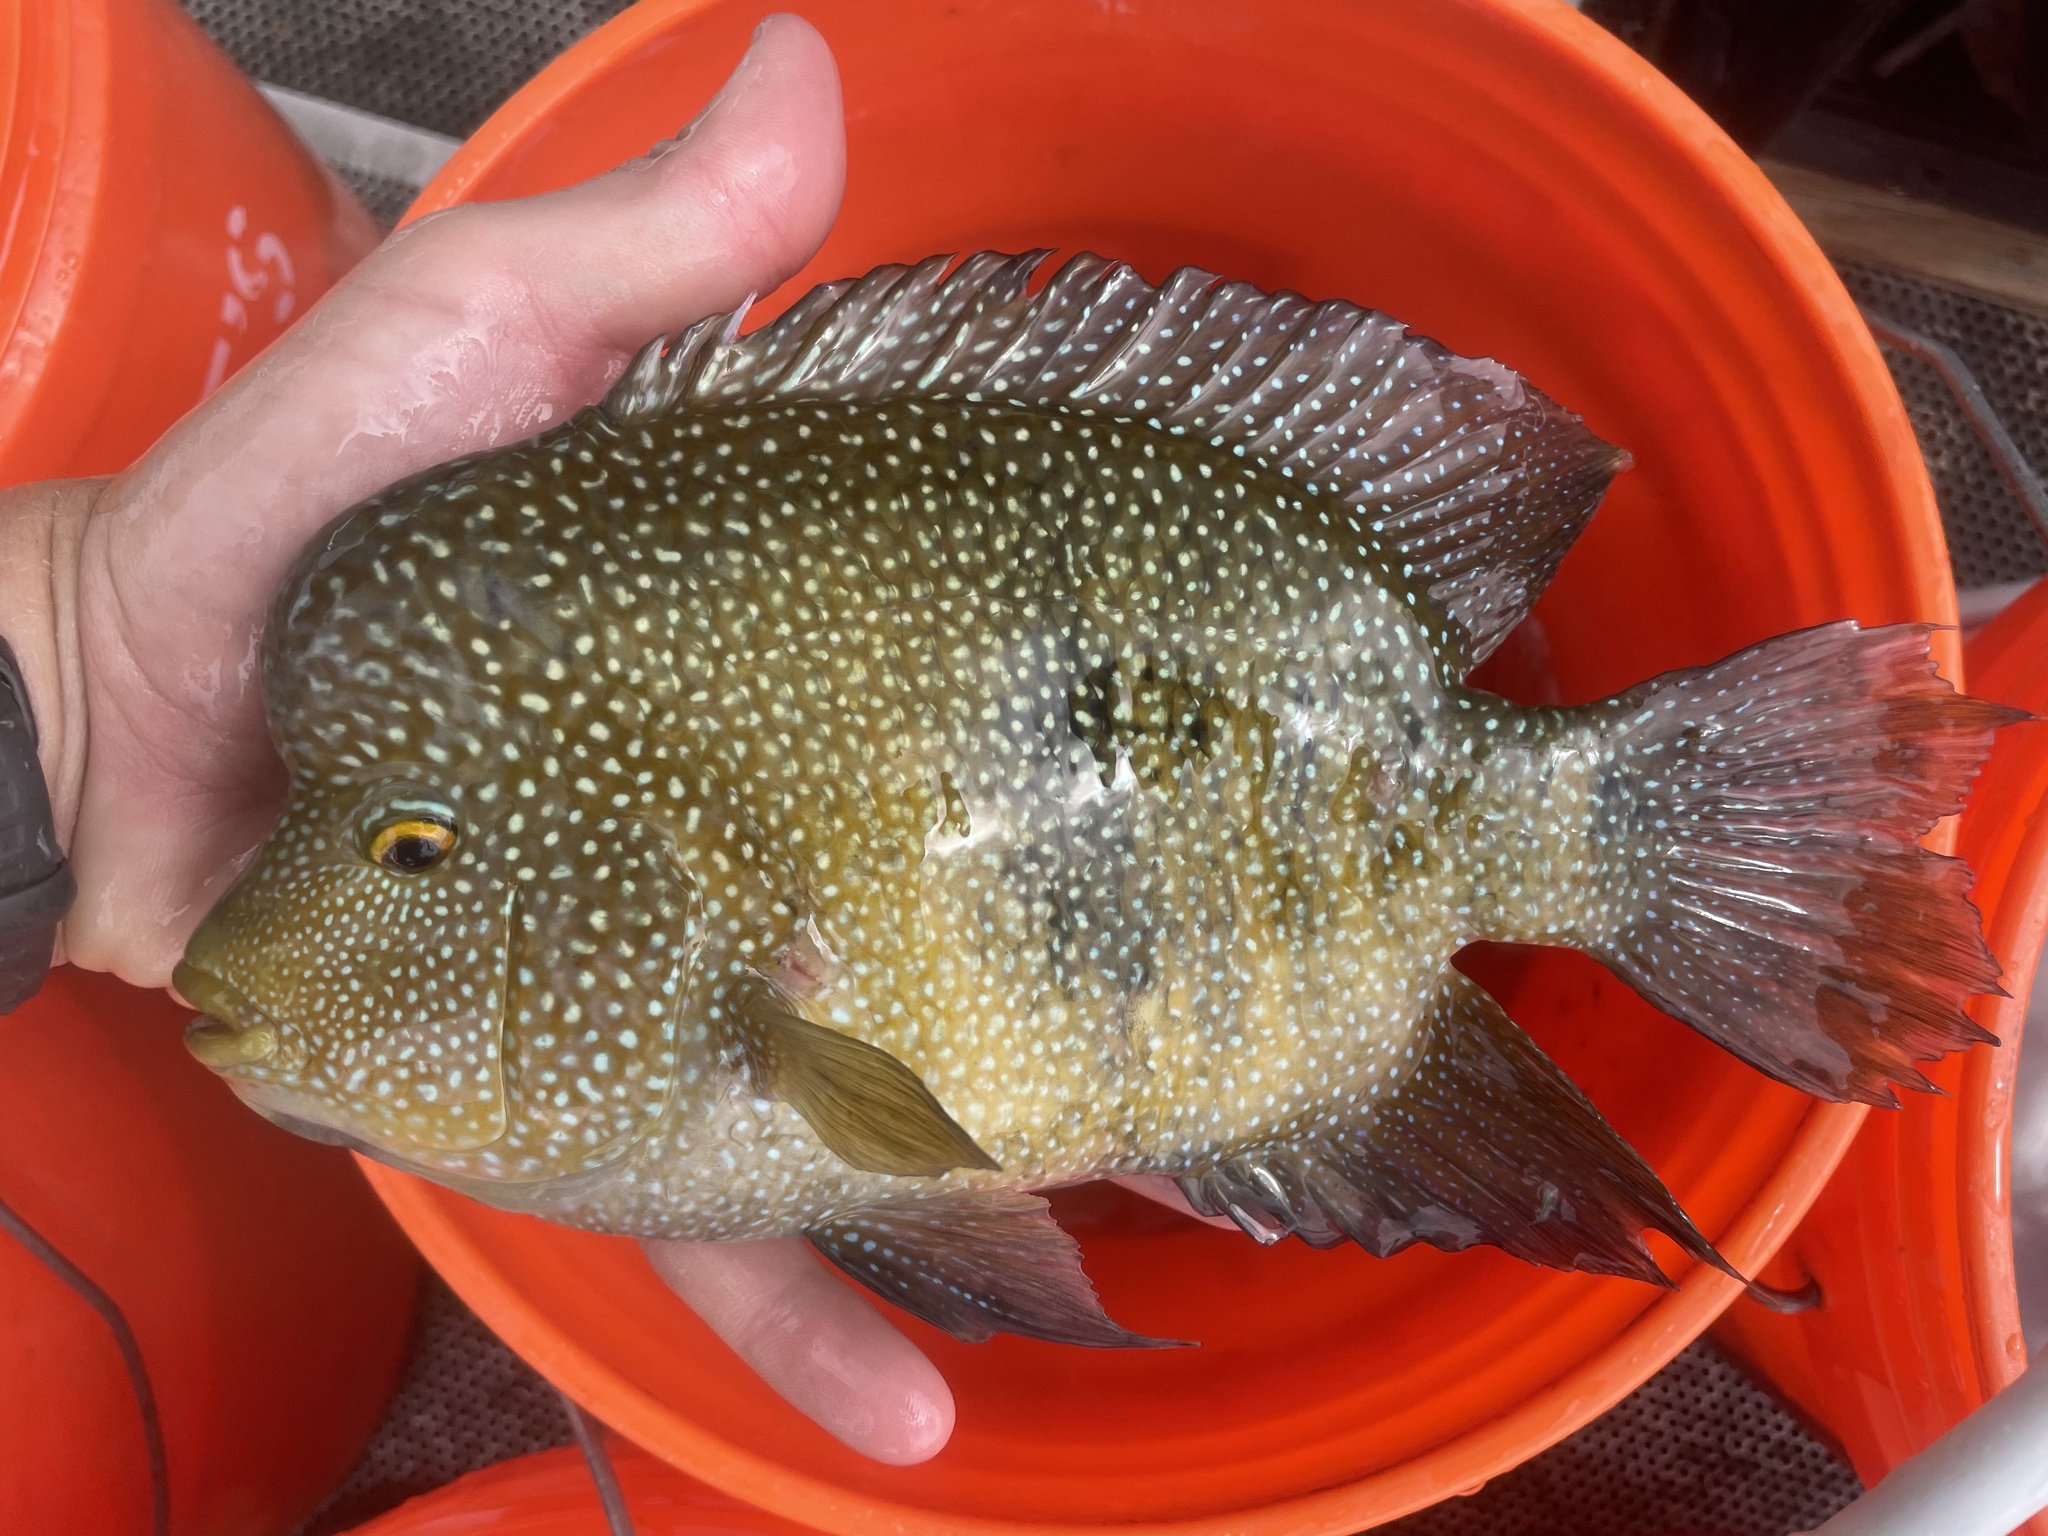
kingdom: Animalia
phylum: Chordata
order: Perciformes
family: Cichlidae
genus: Herichthys
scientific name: Herichthys cyanoguttatus
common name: Rio grande cichlid
